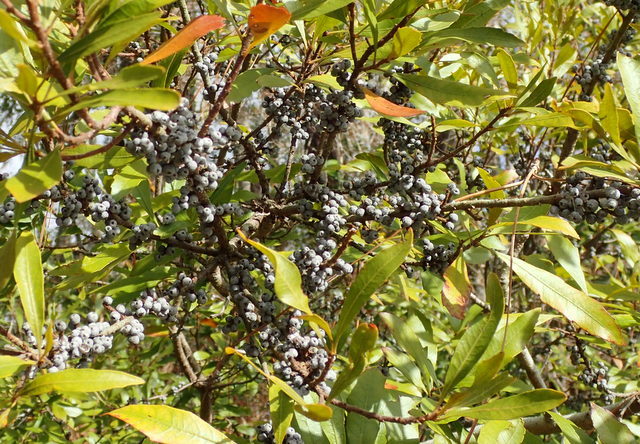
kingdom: Plantae
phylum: Tracheophyta
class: Magnoliopsida
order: Fagales
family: Myricaceae
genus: Morella
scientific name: Morella cerifera
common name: Wax myrtle
